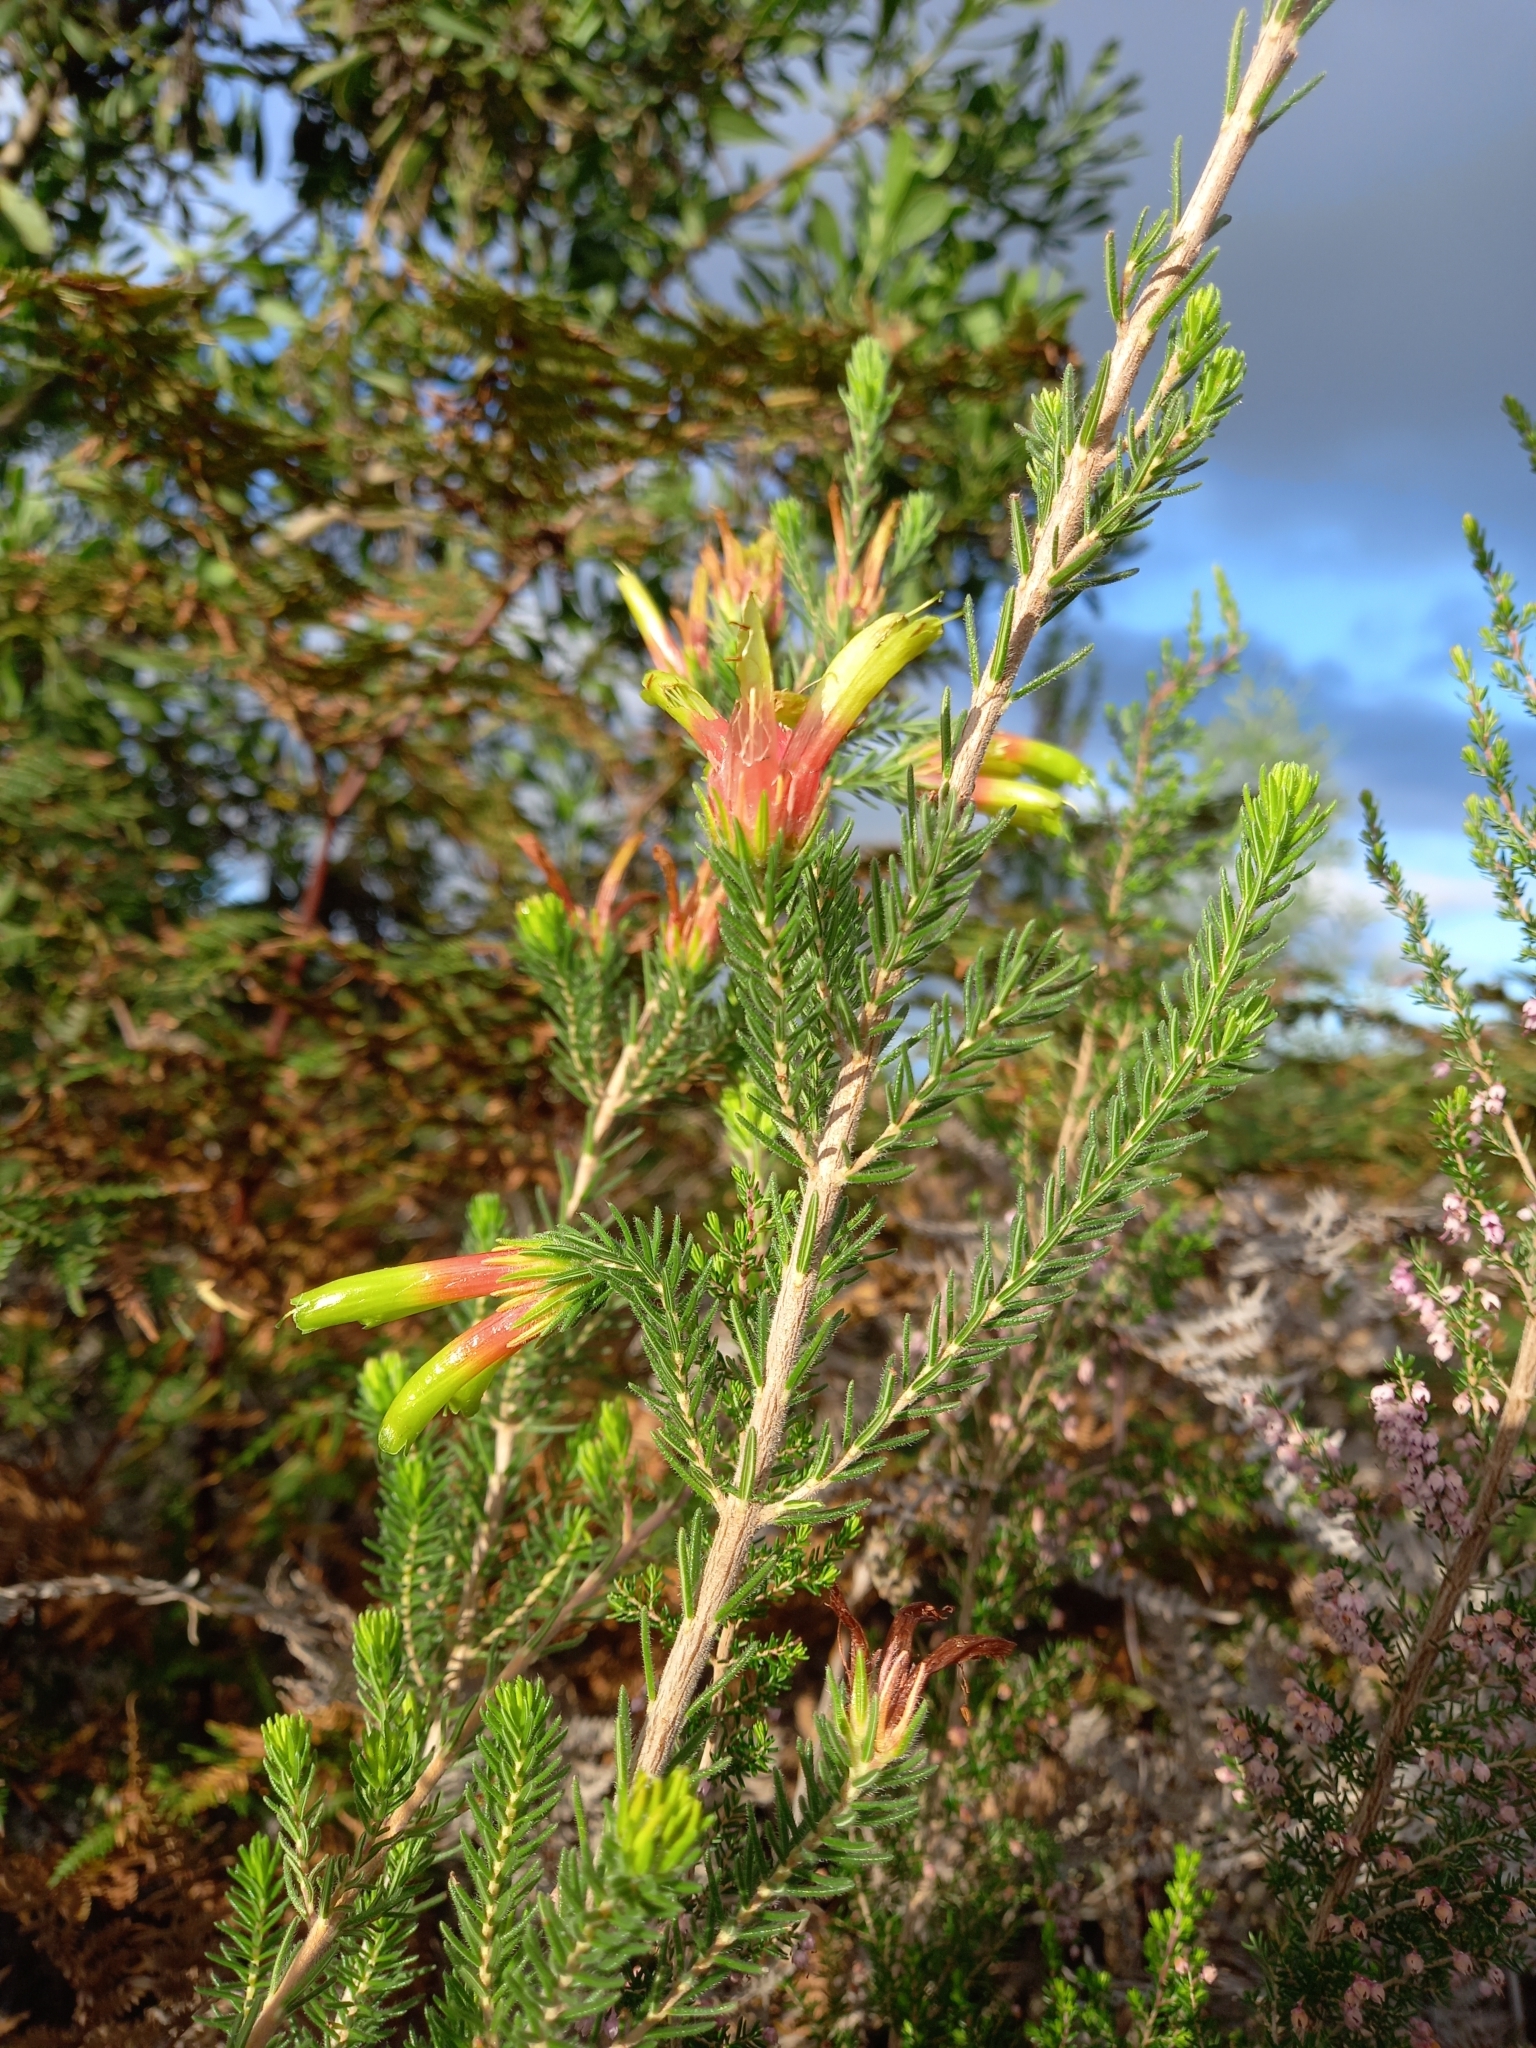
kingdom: Plantae
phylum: Tracheophyta
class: Magnoliopsida
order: Ericales
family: Ericaceae
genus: Erica
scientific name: Erica unicolor
